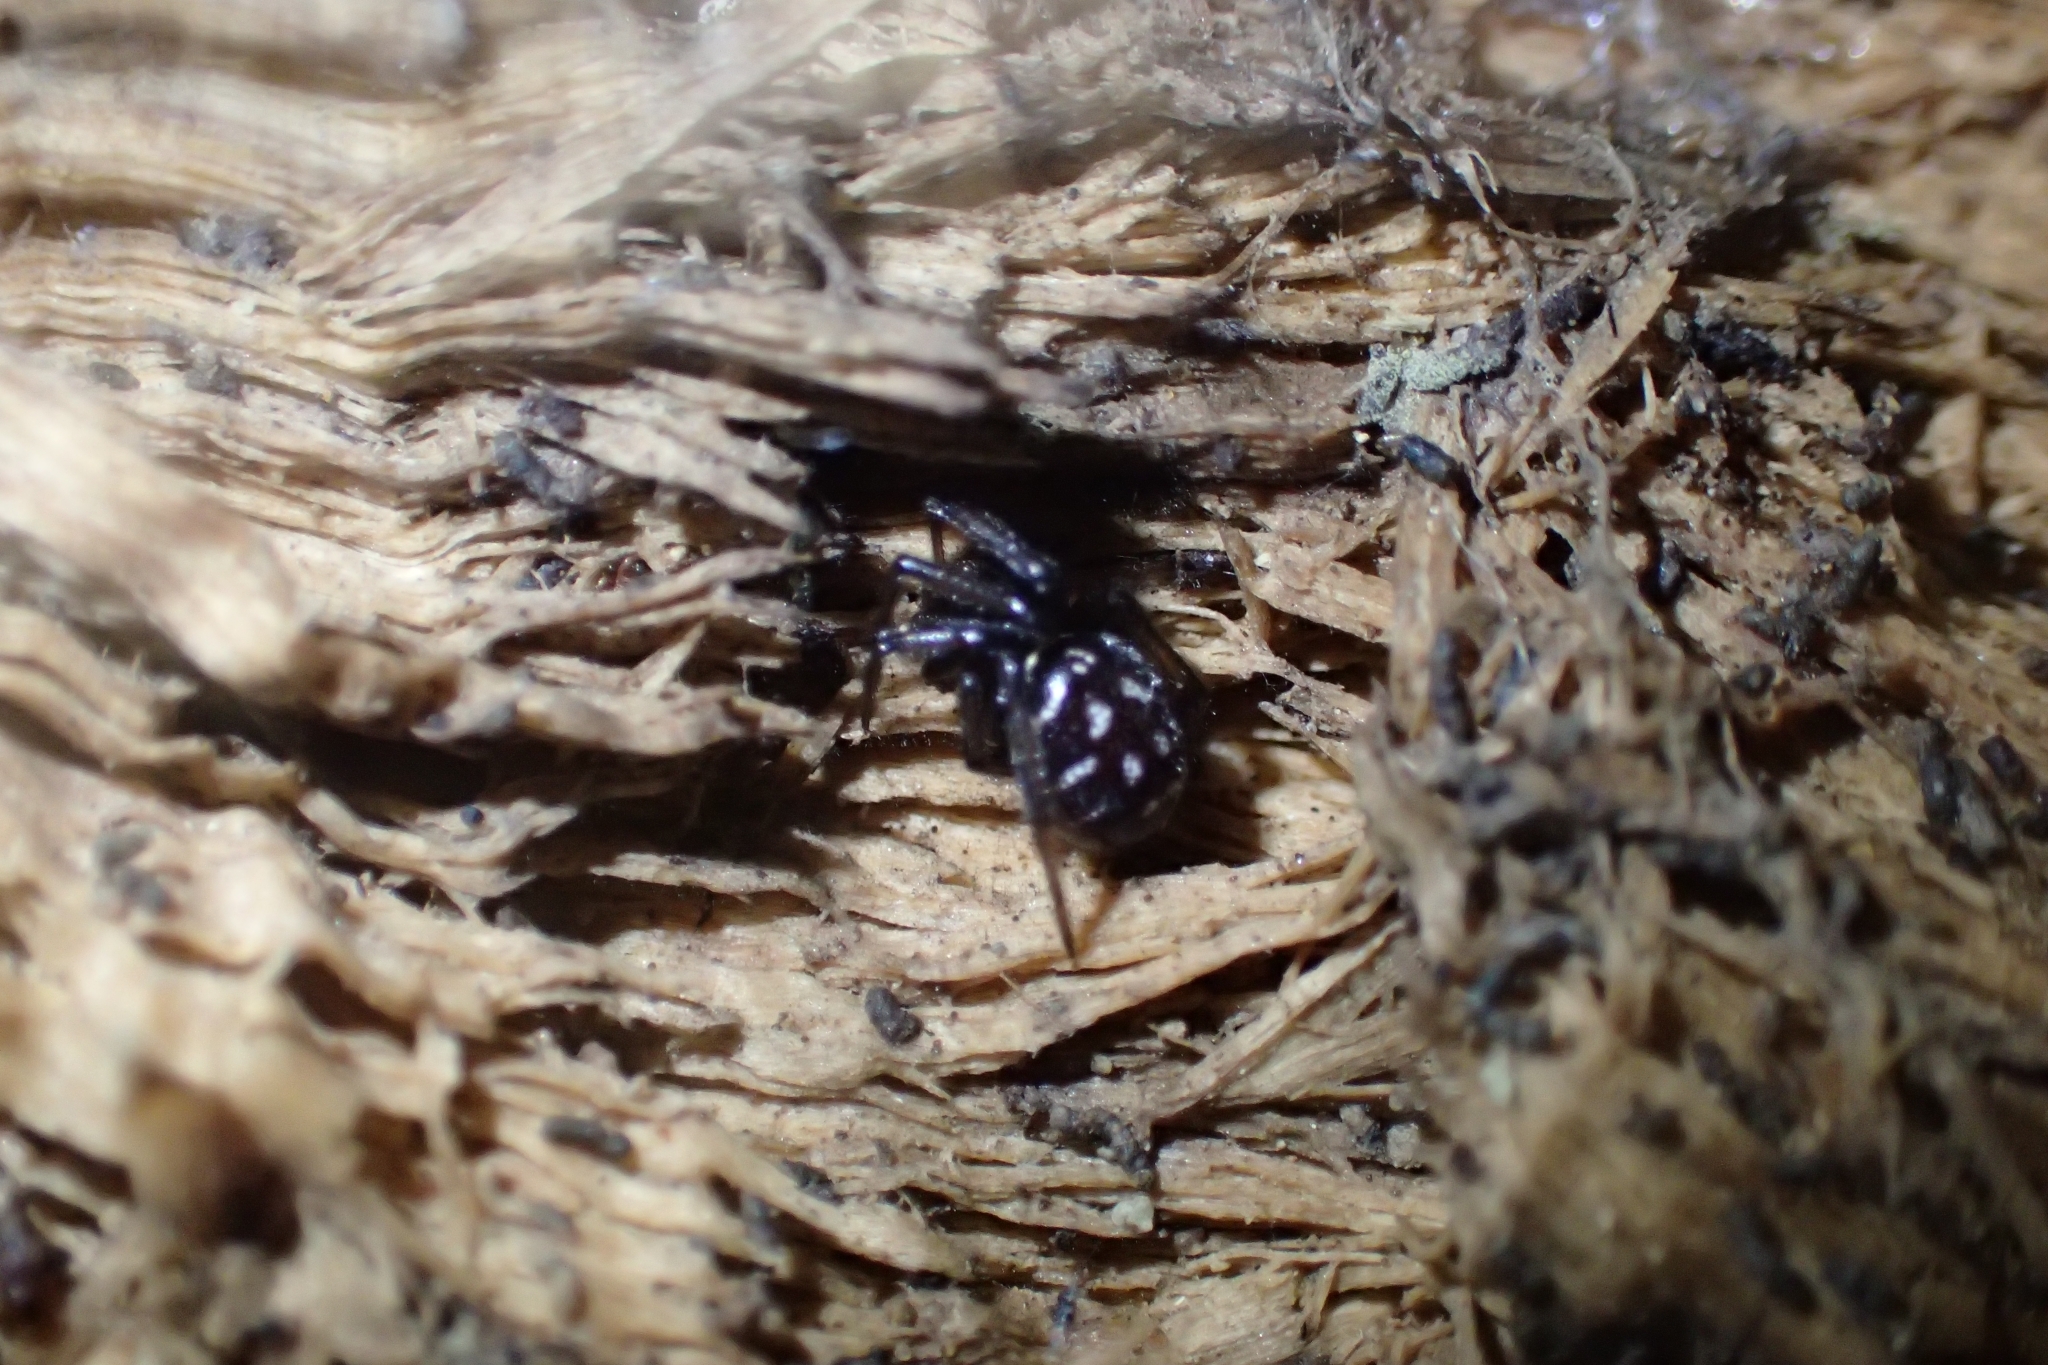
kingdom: Animalia
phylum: Arthropoda
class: Arachnida
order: Araneae
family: Theridiidae
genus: Steatoda
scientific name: Steatoda capensis
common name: Cobweb weaver
